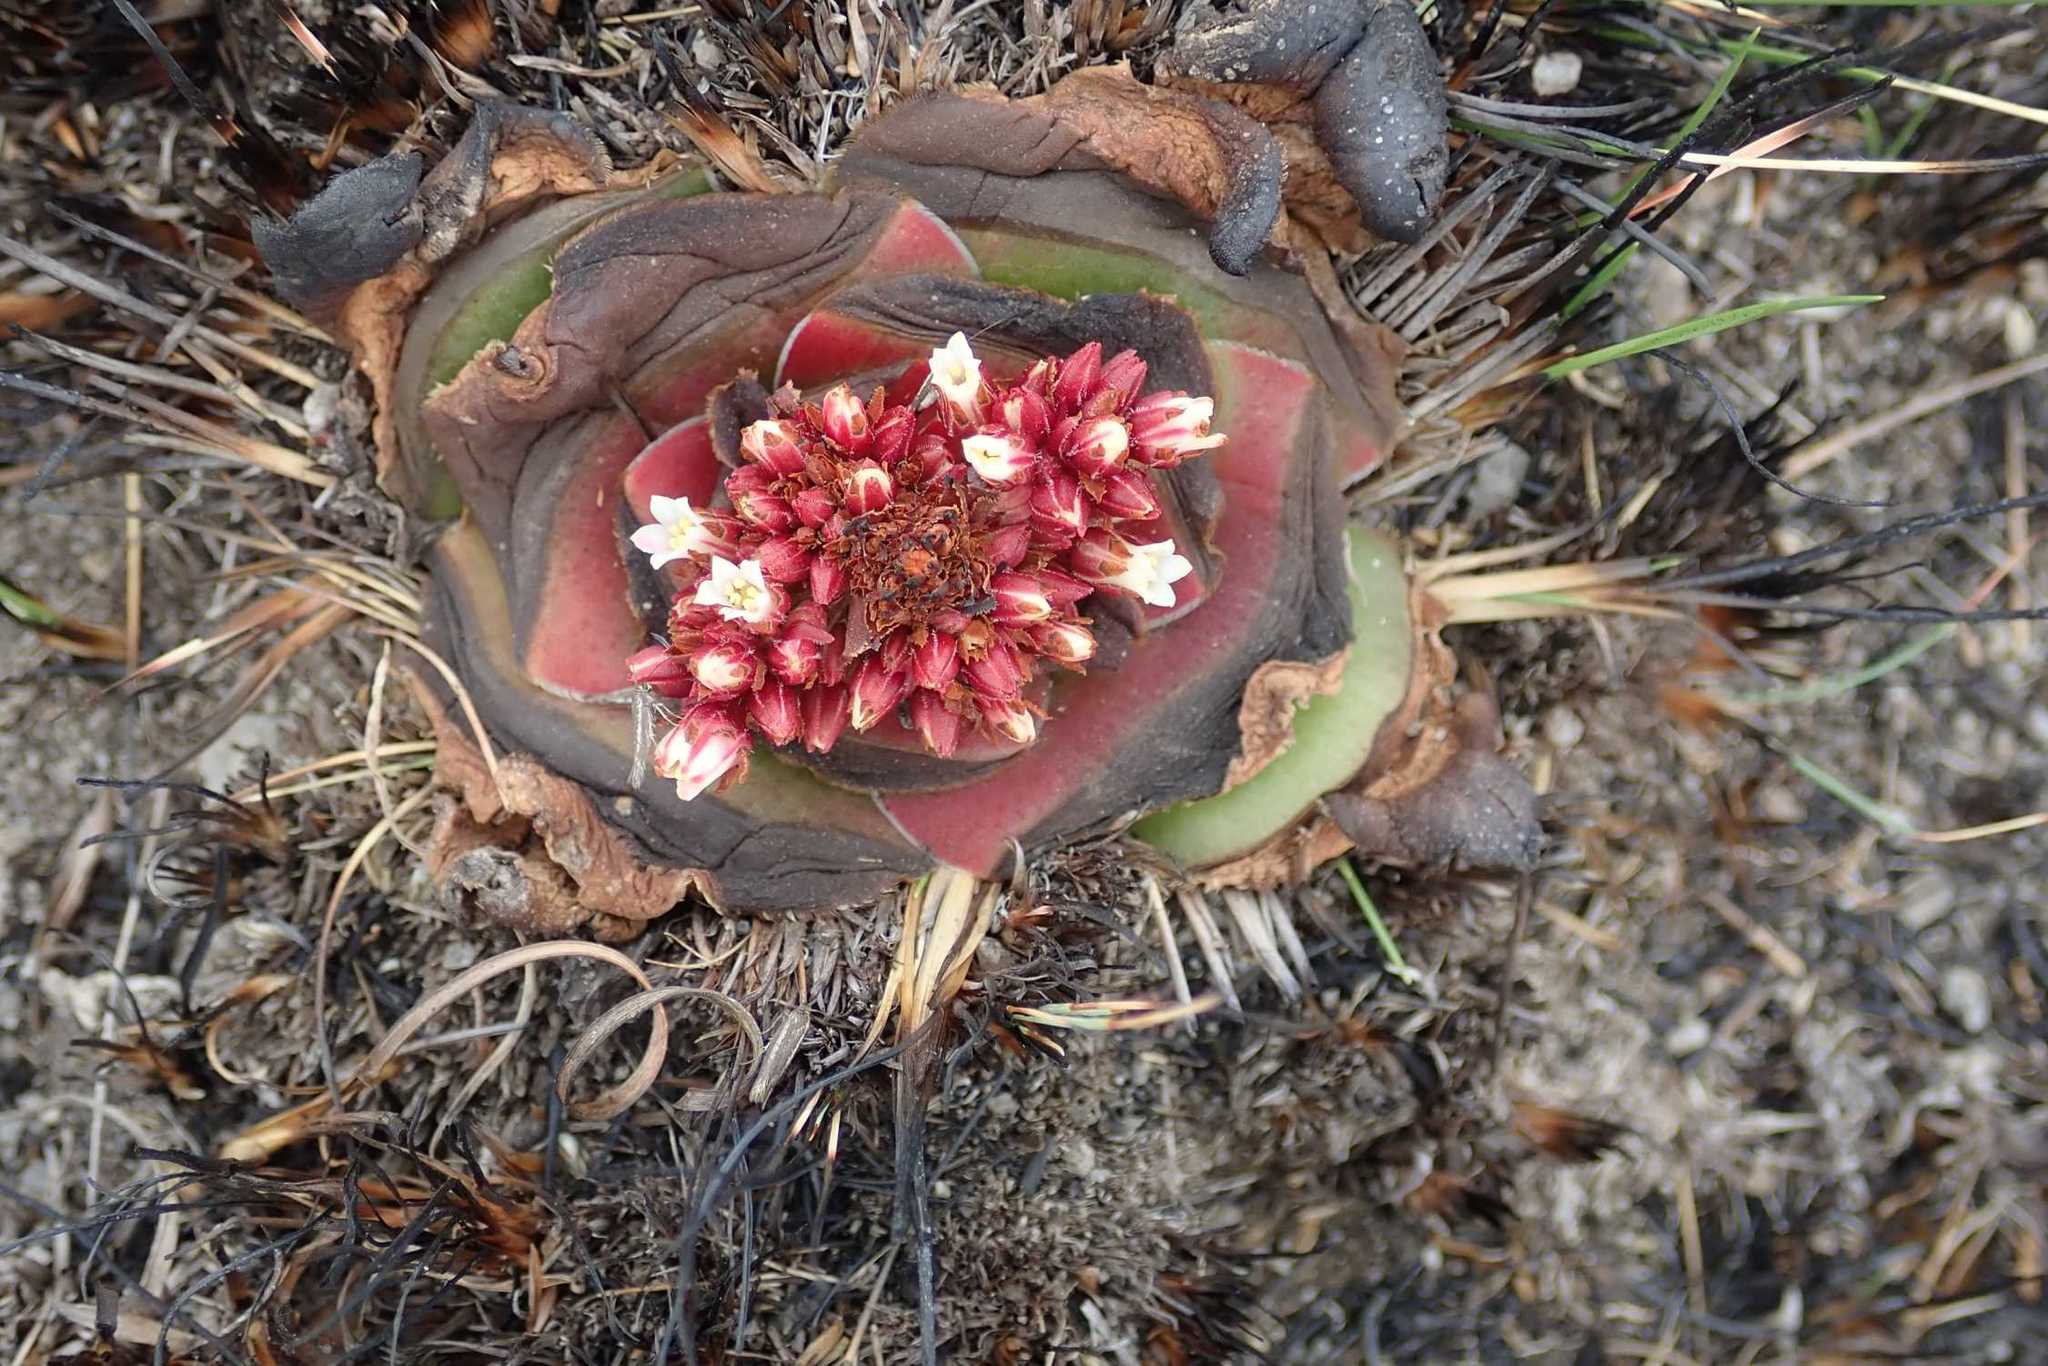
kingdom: Plantae
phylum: Tracheophyta
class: Magnoliopsida
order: Saxifragales
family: Crassulaceae
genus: Crassula
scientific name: Crassula compacta
